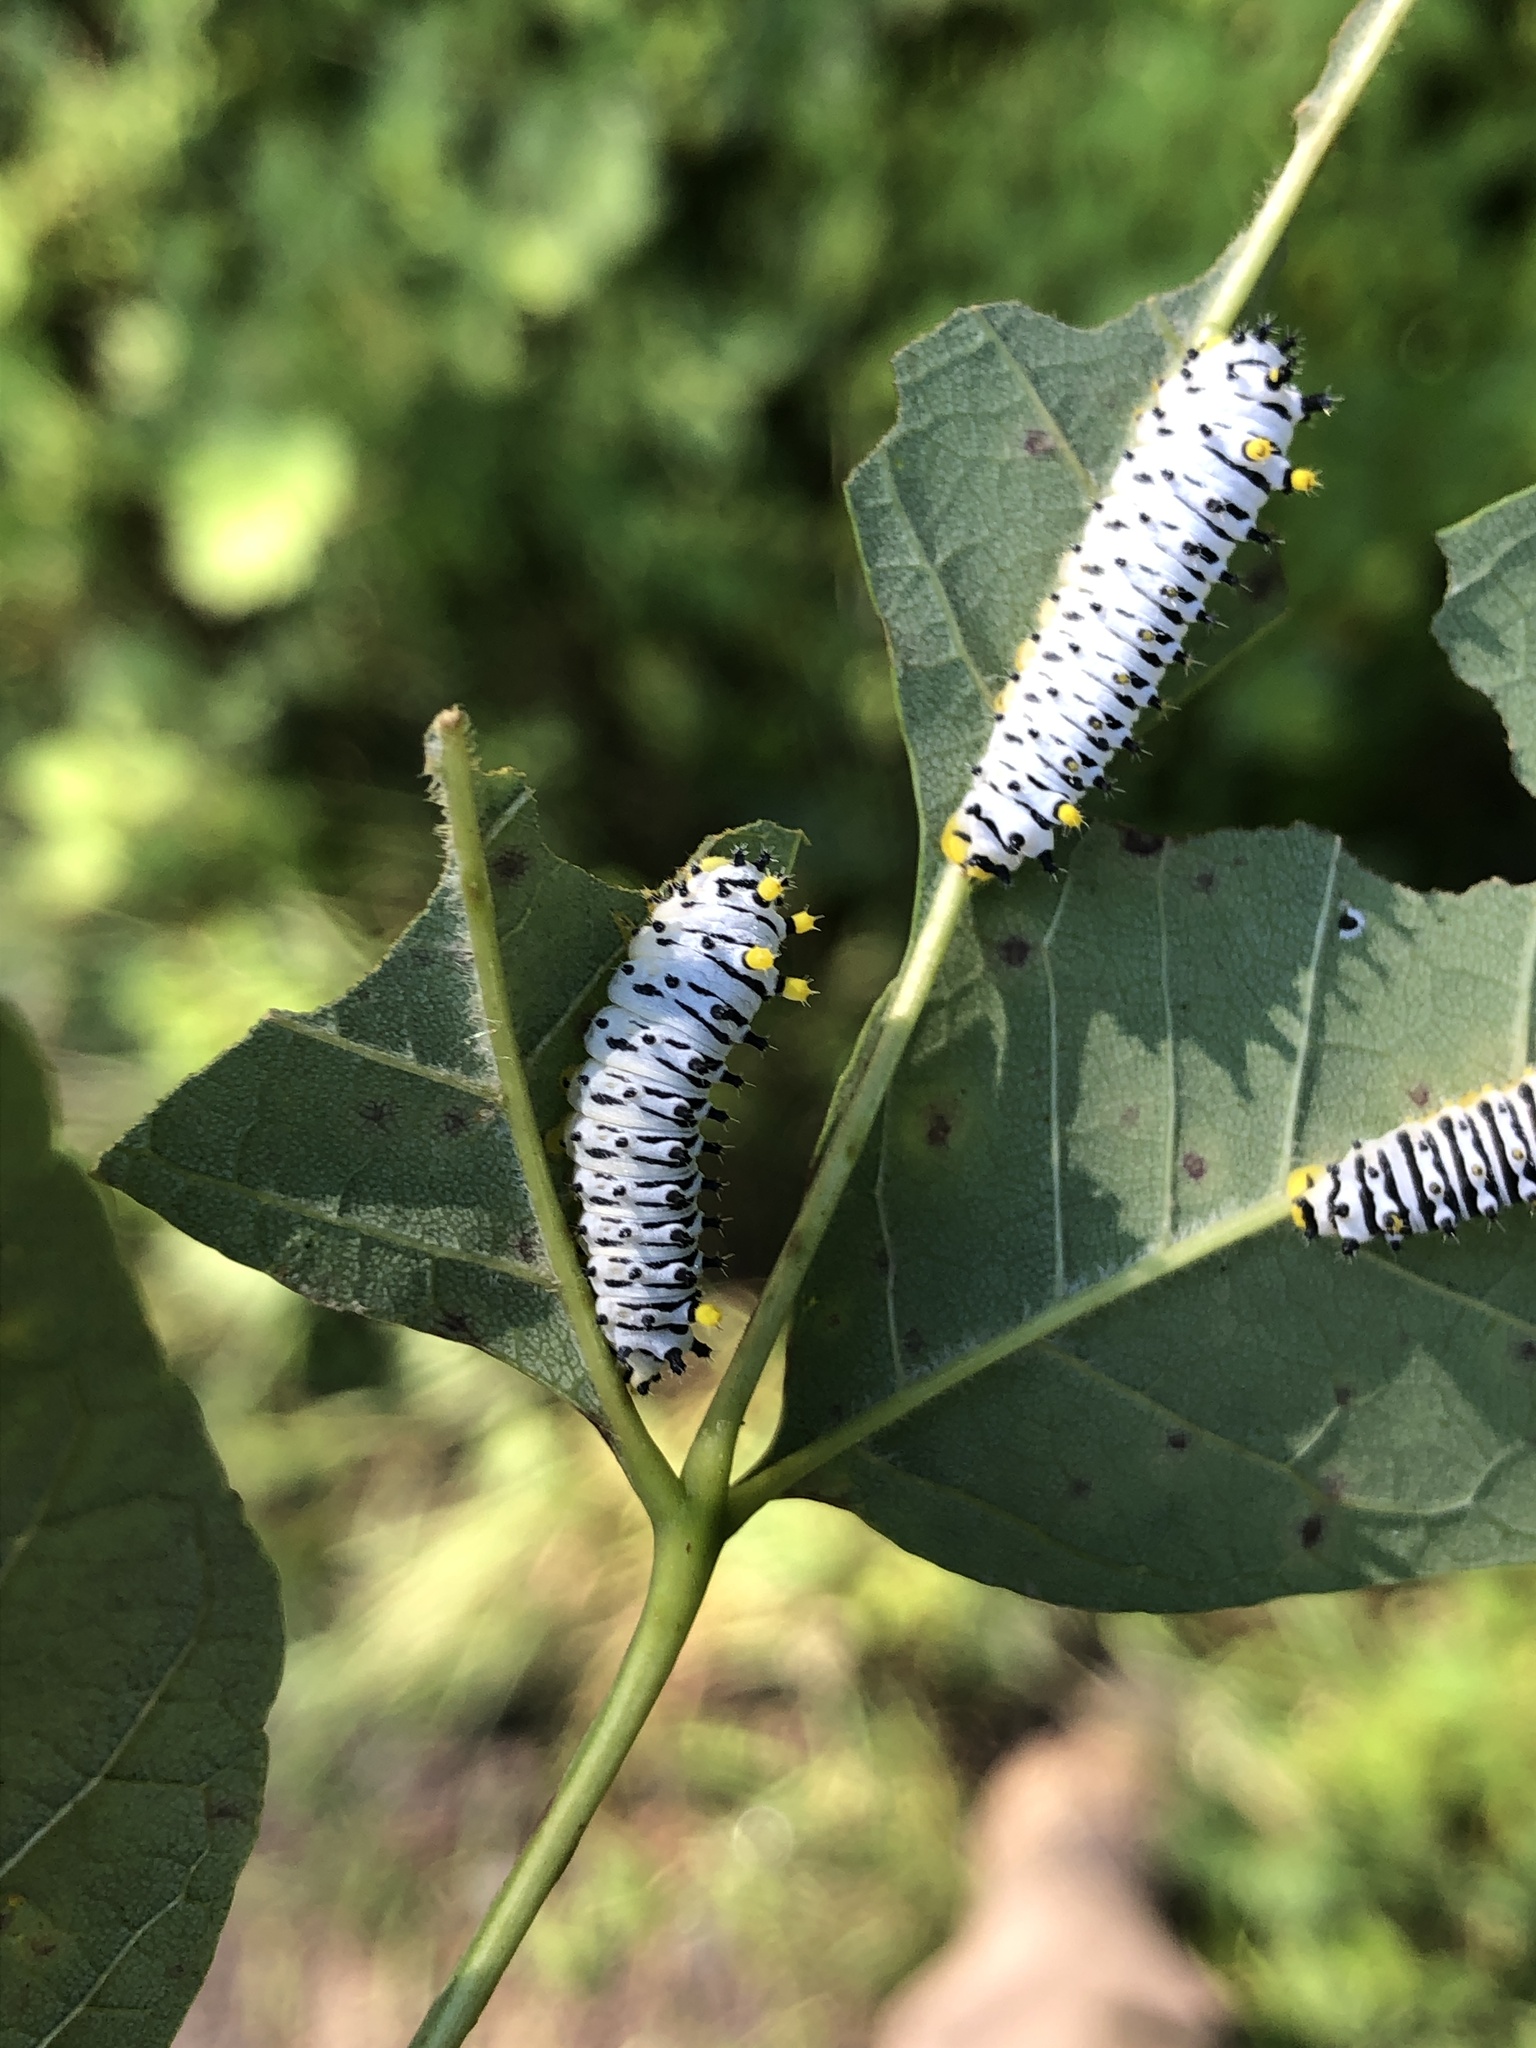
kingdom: Animalia
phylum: Arthropoda
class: Insecta
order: Lepidoptera
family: Saturniidae
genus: Callosamia
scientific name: Callosamia promethea
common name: Promethea silkmoth
